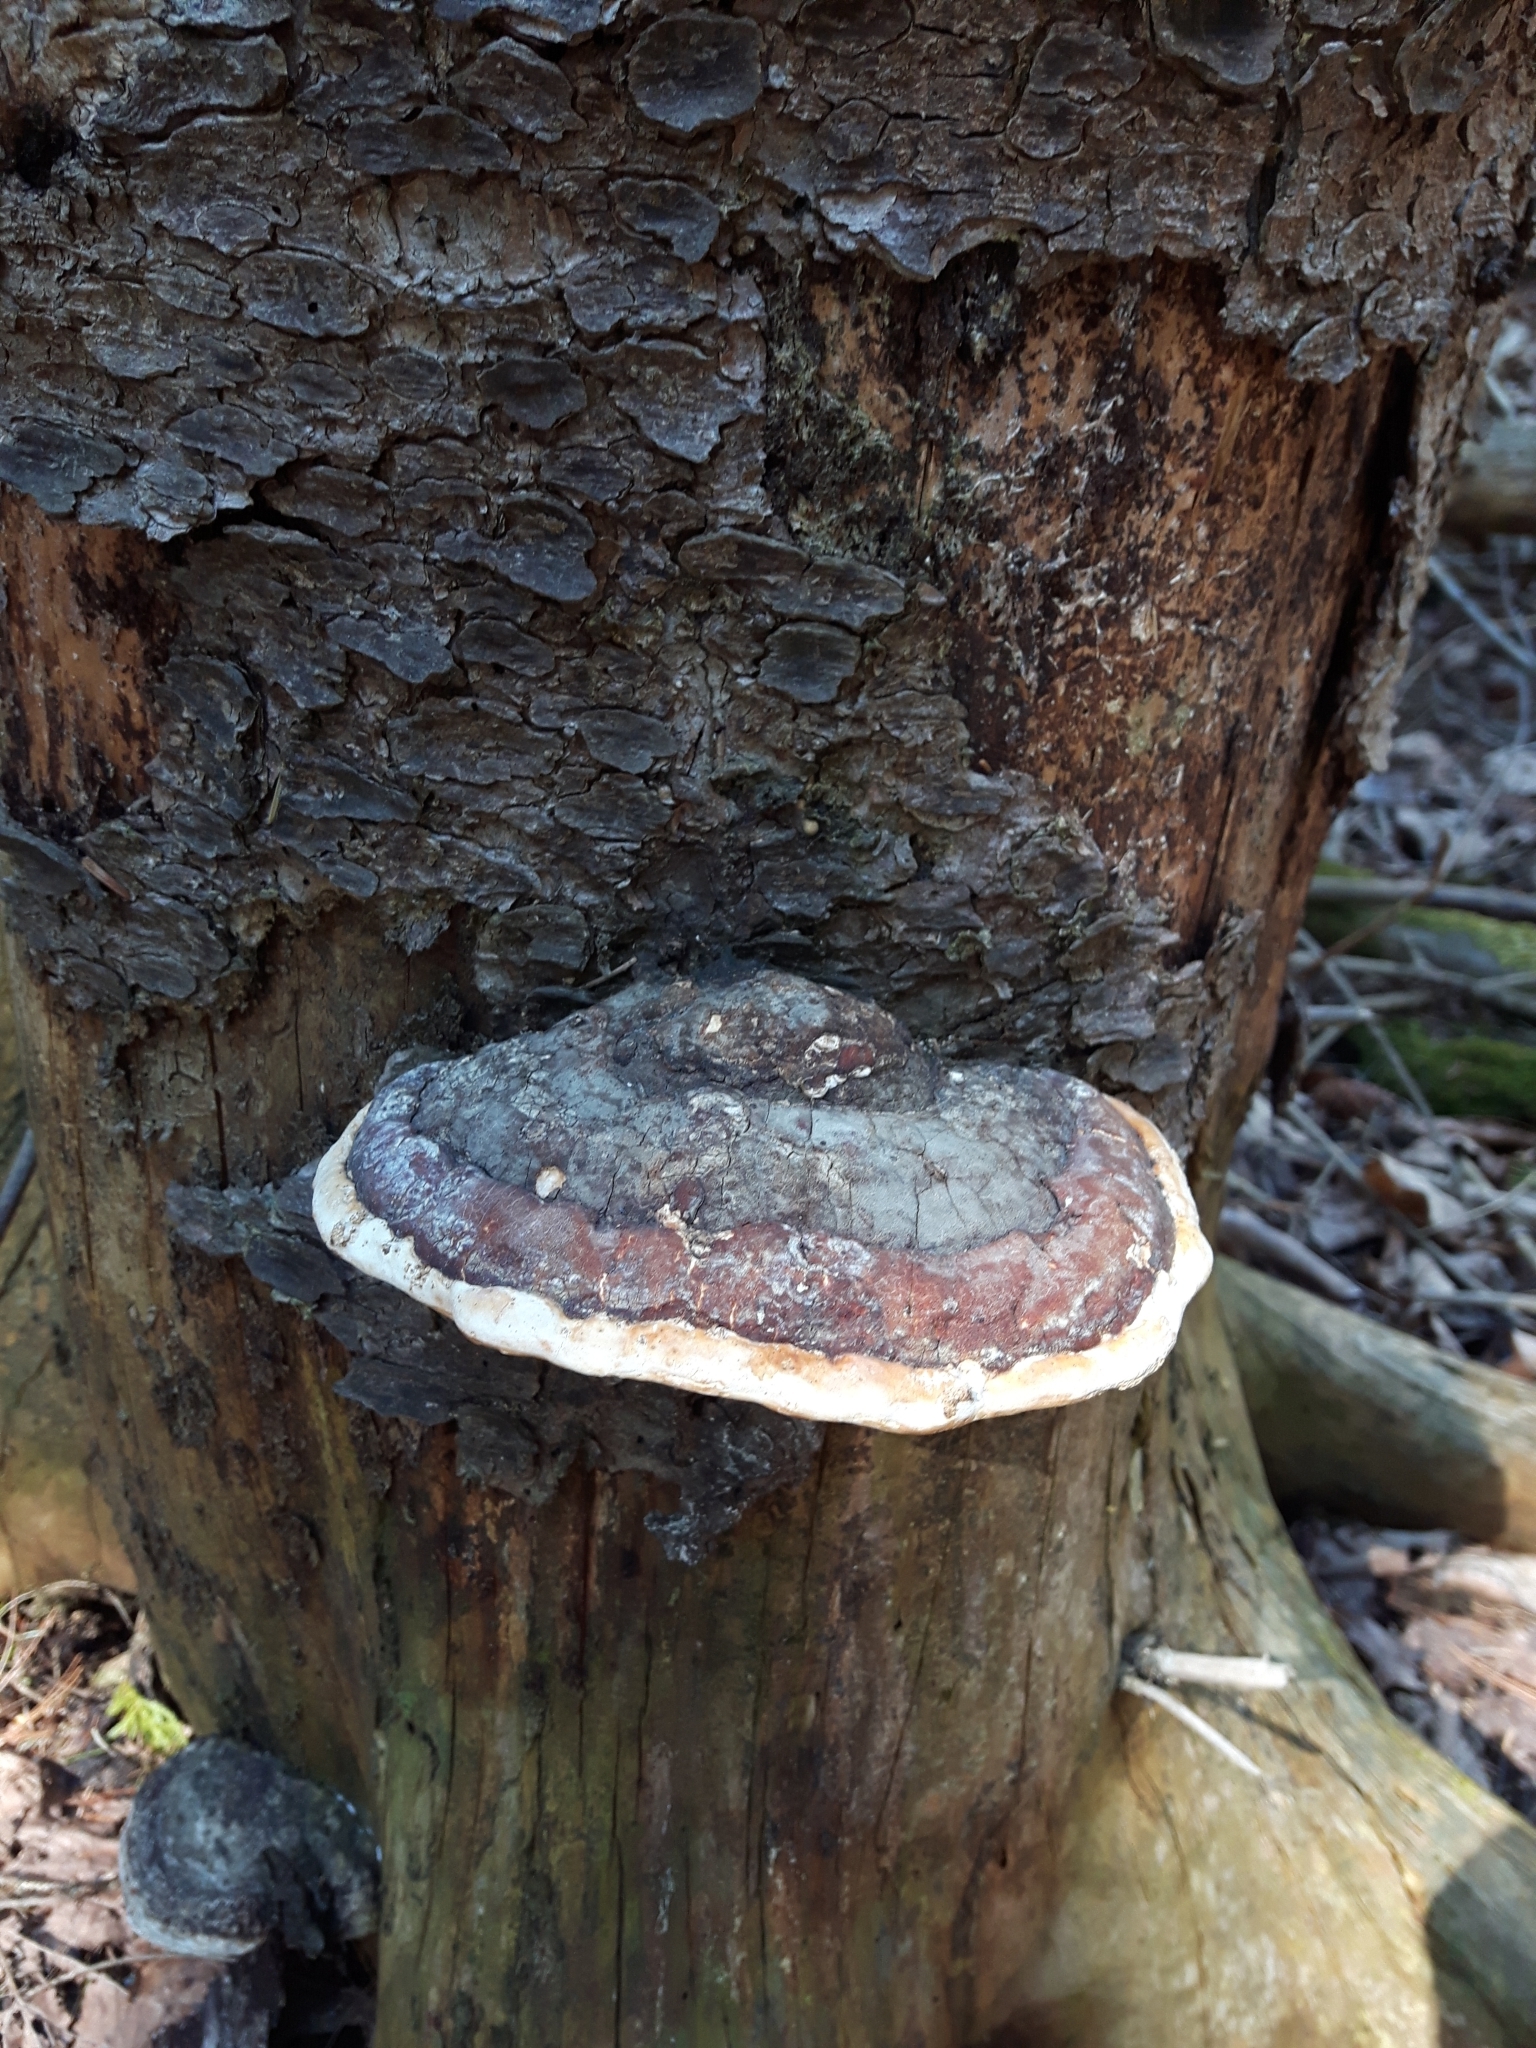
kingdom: Fungi
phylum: Basidiomycota
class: Agaricomycetes
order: Polyporales
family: Fomitopsidaceae
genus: Fomitopsis
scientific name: Fomitopsis mounceae
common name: Northern red belt
